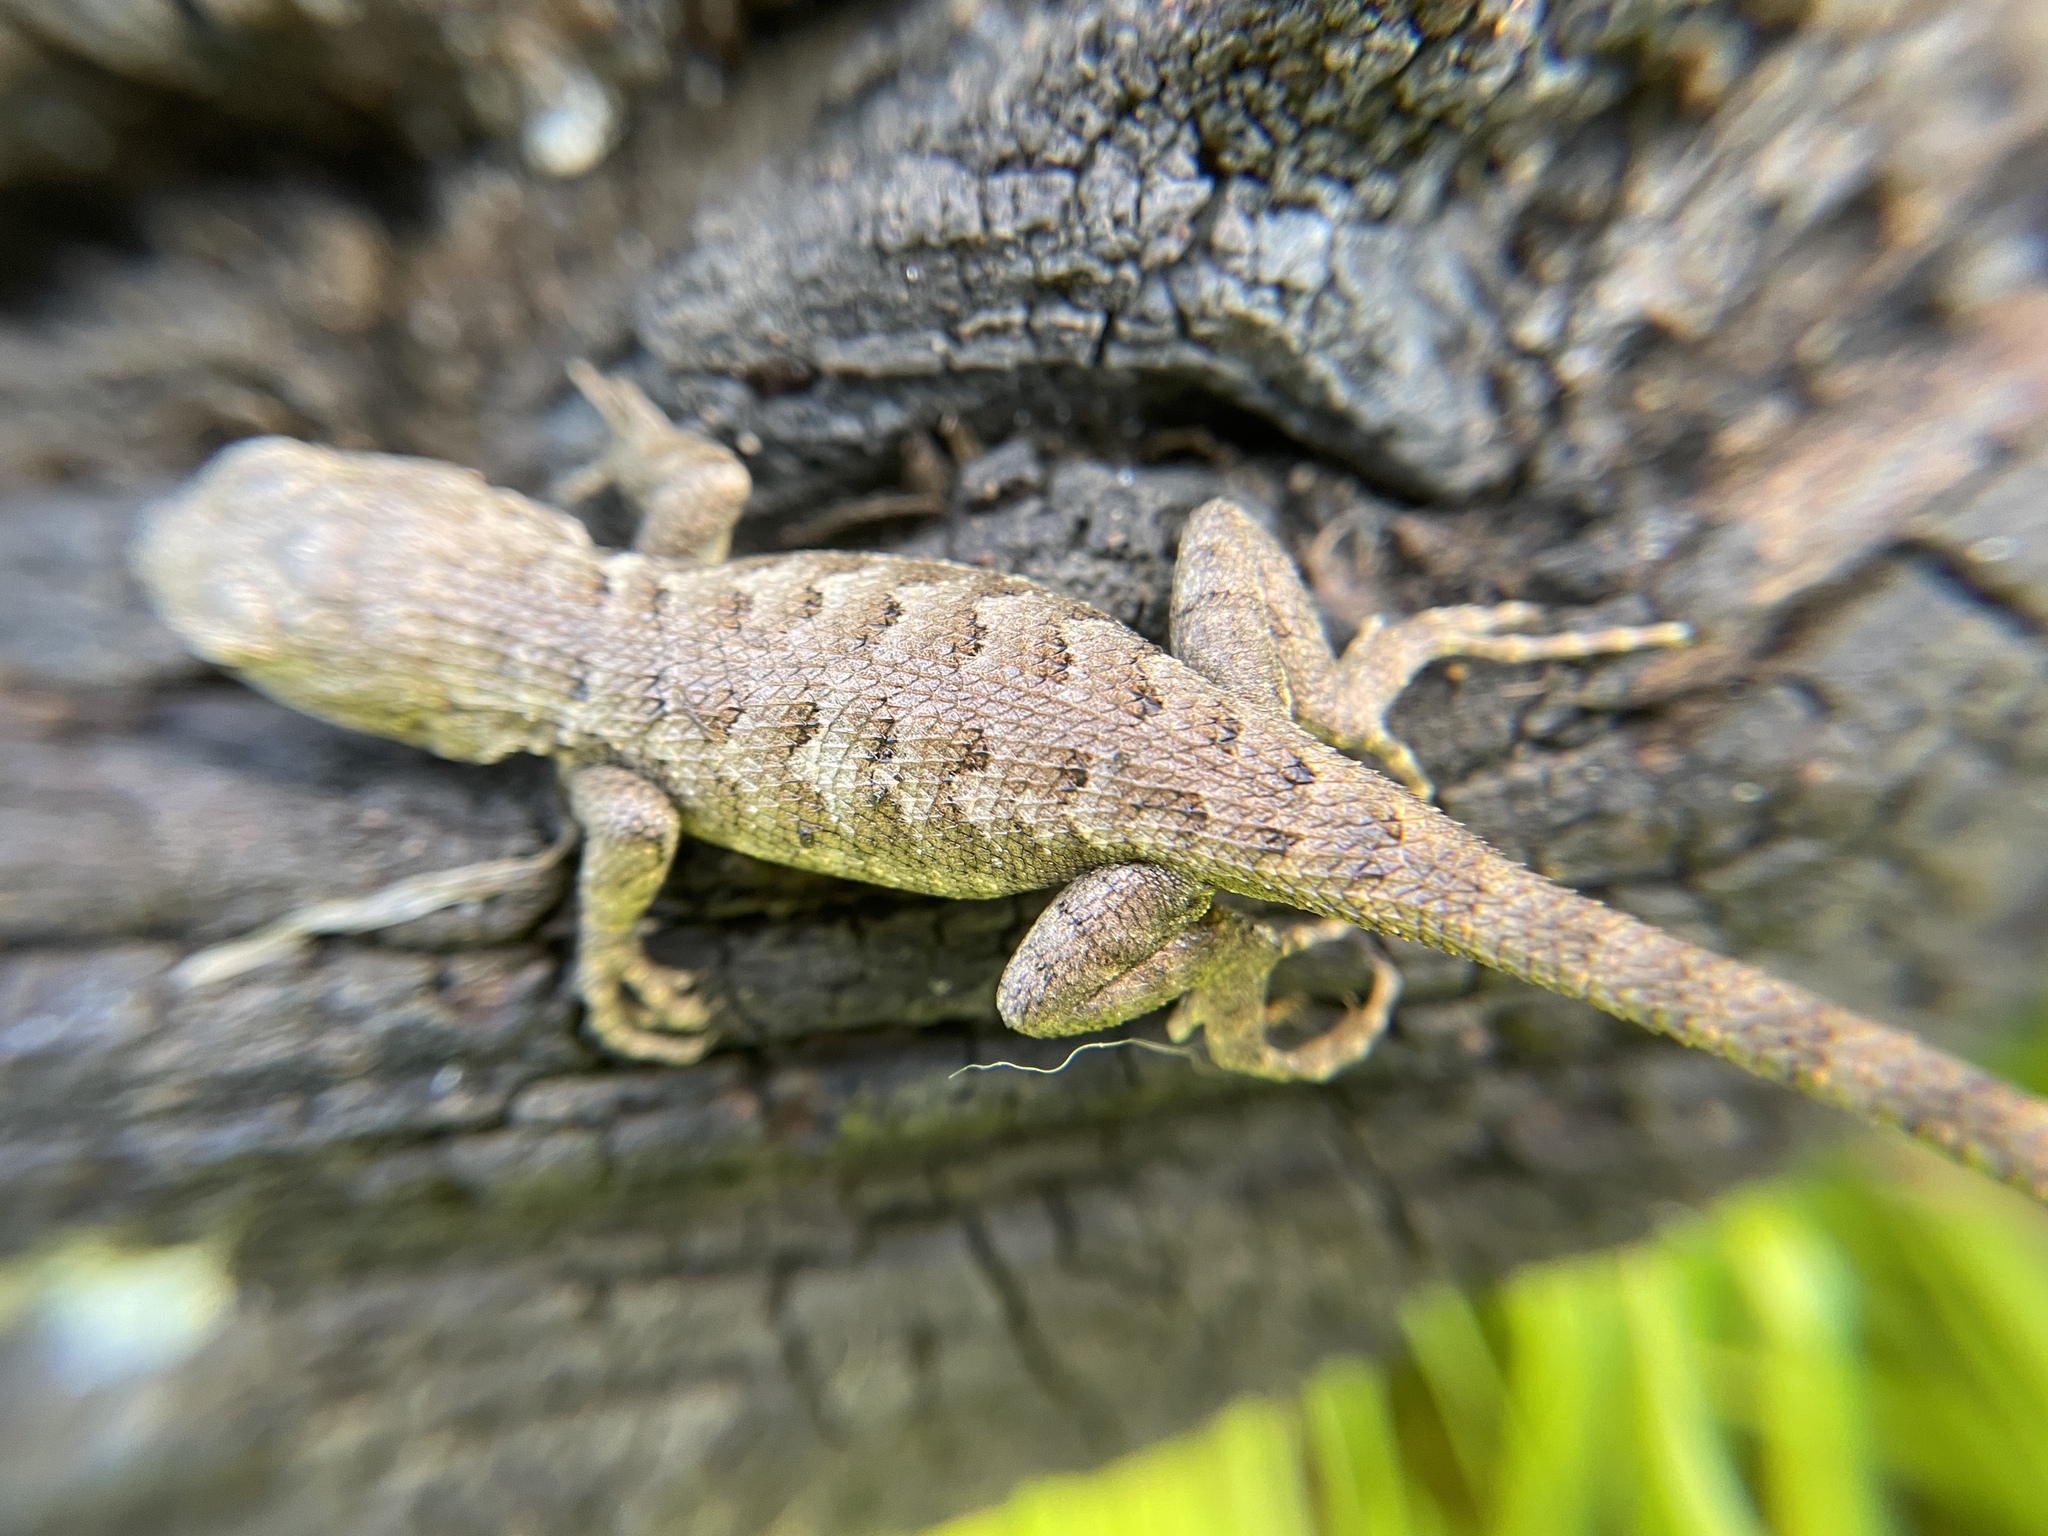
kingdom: Animalia
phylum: Chordata
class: Squamata
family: Phrynosomatidae
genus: Sceloporus
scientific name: Sceloporus occidentalis
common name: Western fence lizard
